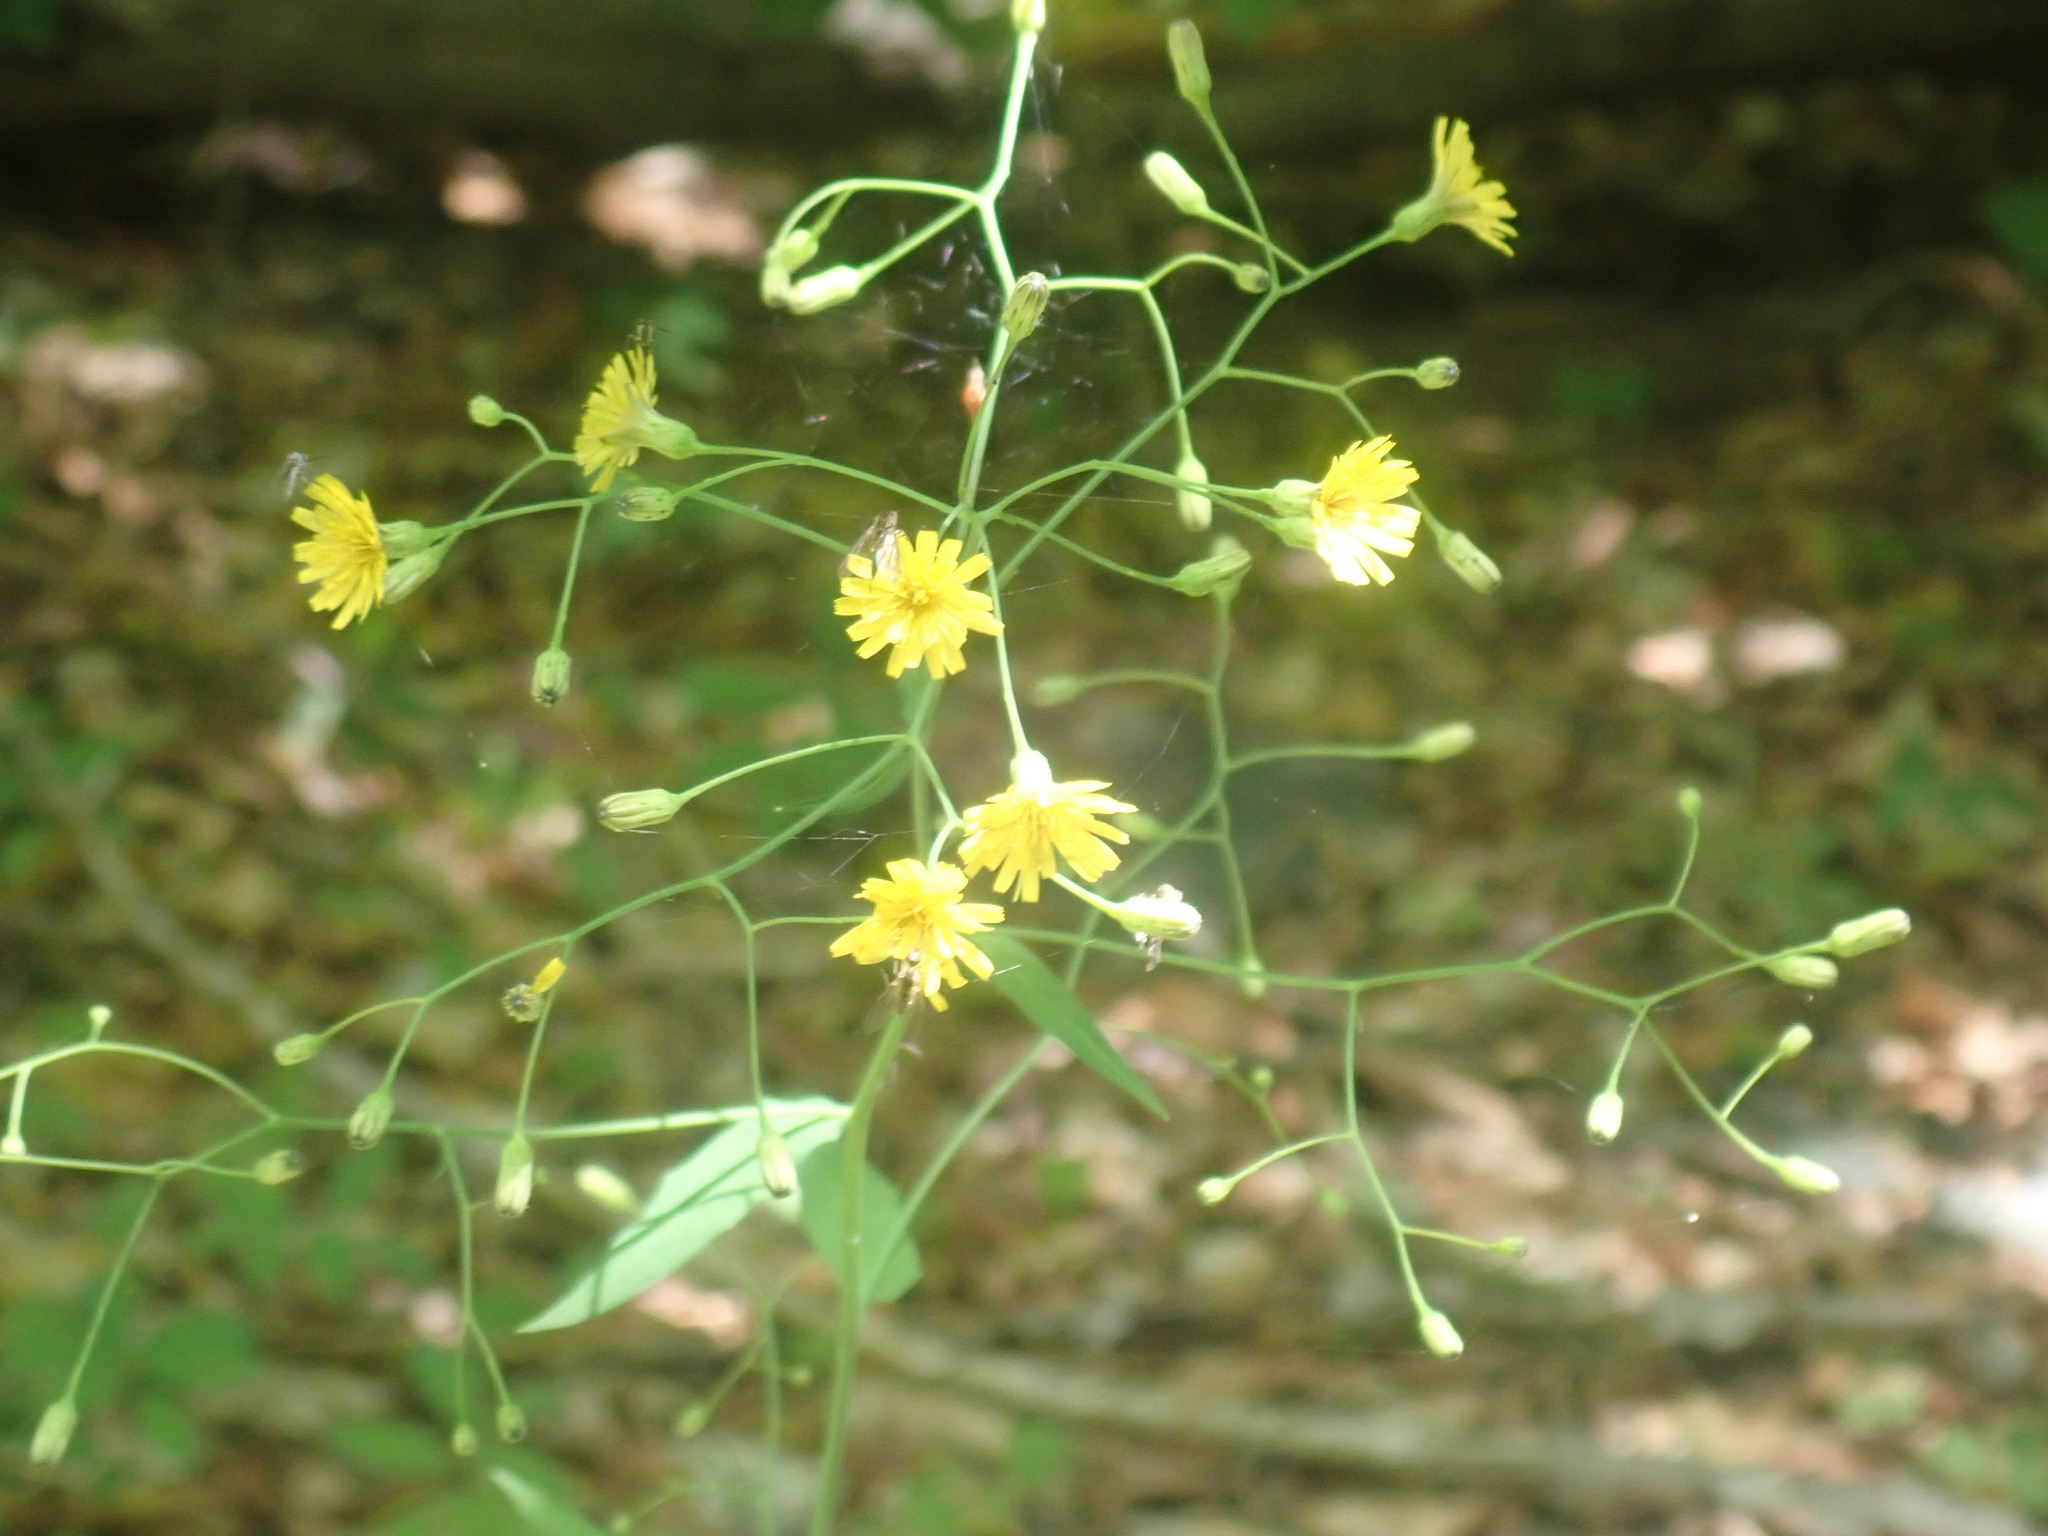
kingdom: Plantae
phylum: Tracheophyta
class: Magnoliopsida
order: Asterales
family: Asteraceae
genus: Hieracium
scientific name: Hieracium paniculatum
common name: Allegheny hawkweed
